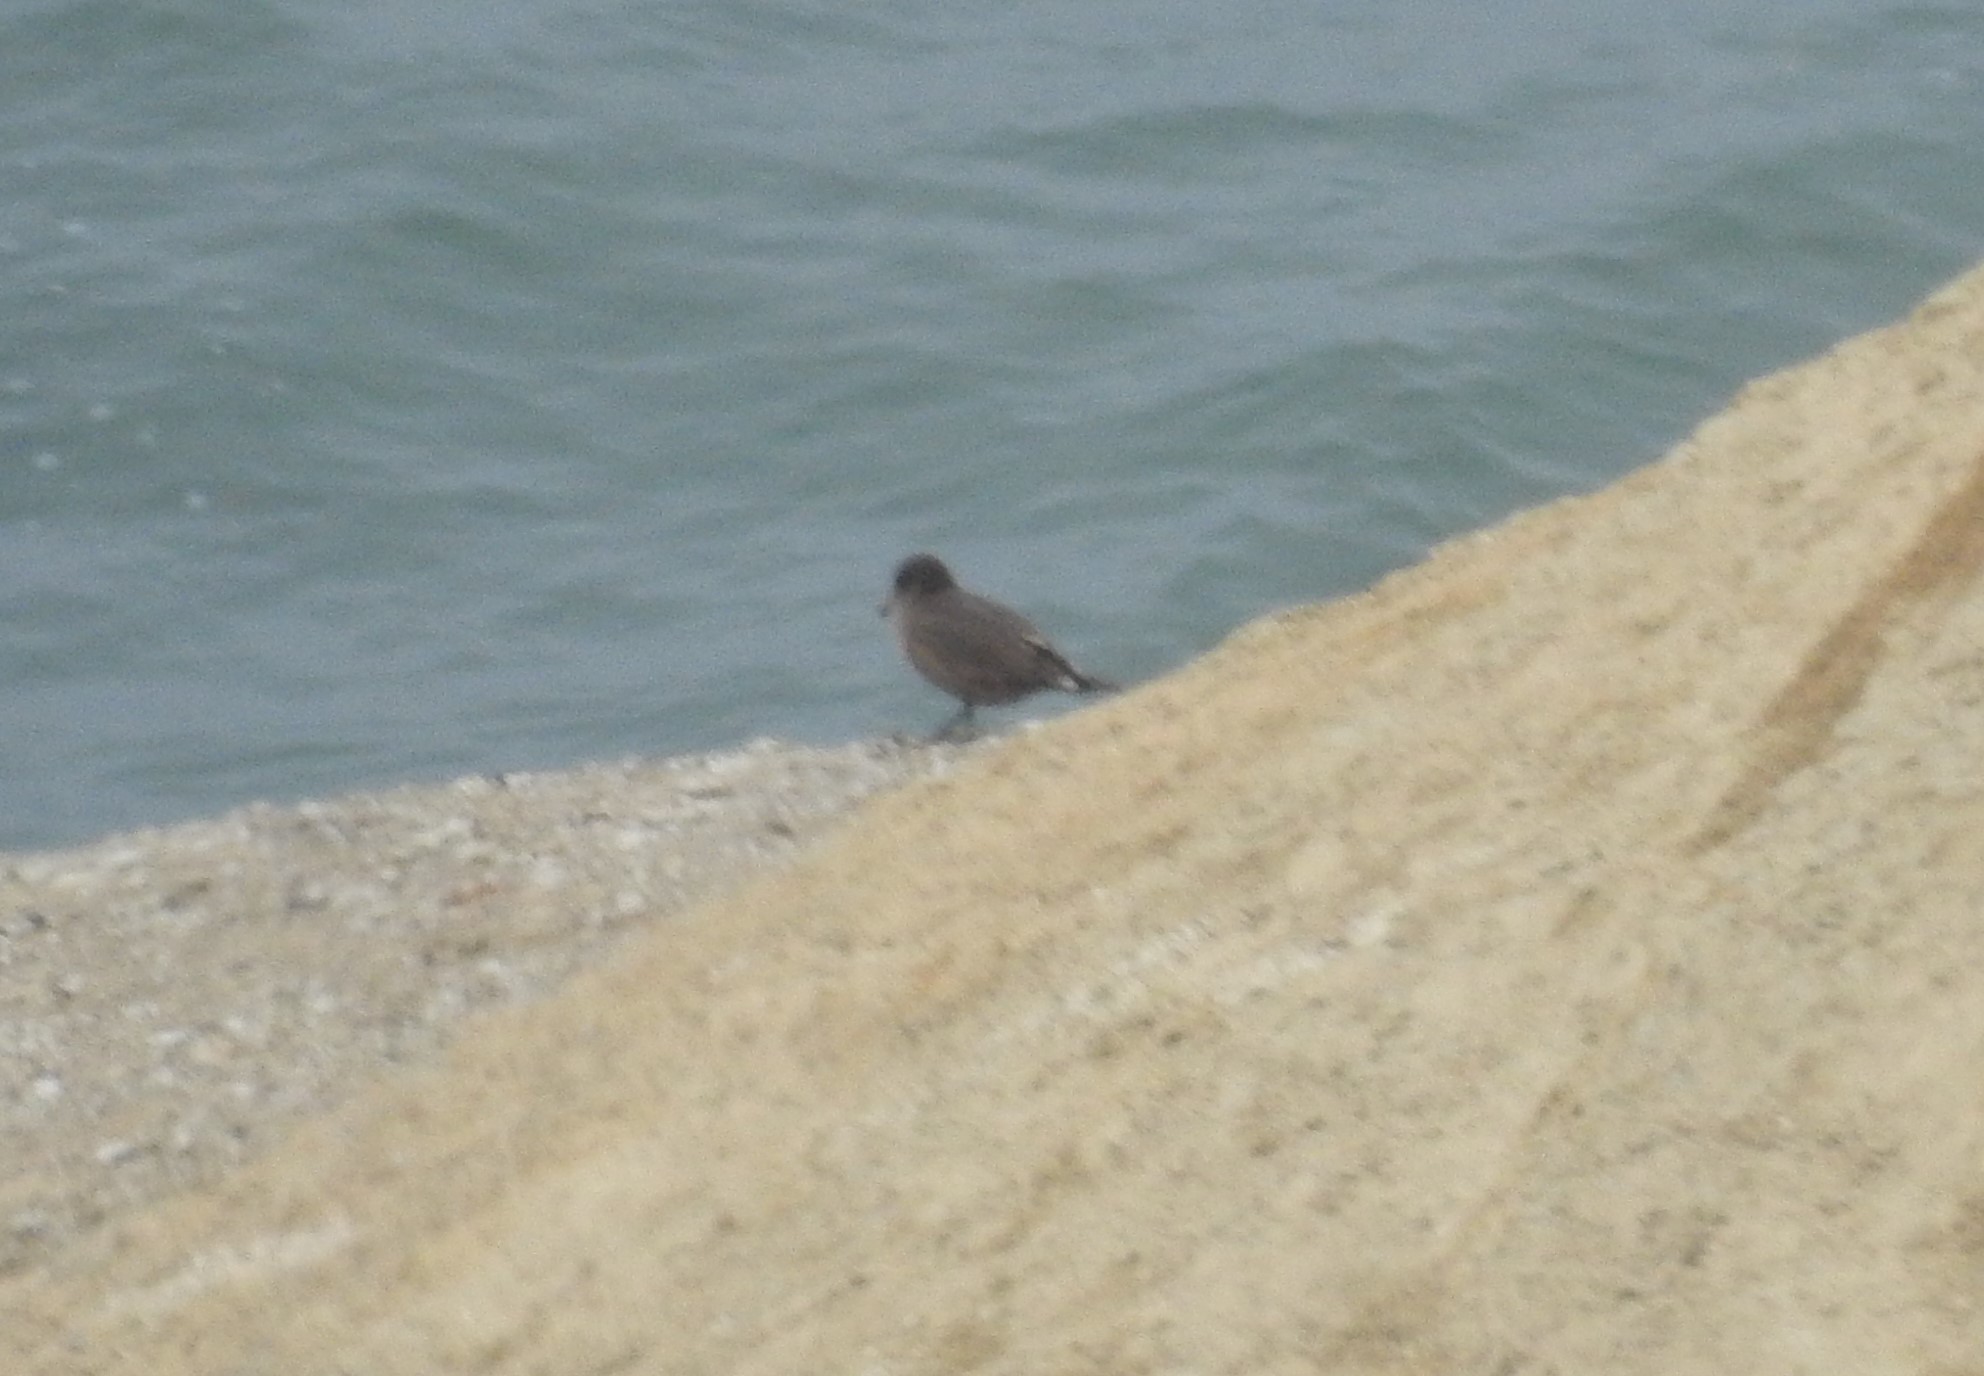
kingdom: Animalia
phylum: Chordata
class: Aves
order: Charadriiformes
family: Laridae
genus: Larus
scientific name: Larus heermanni
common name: Heermann's gull
